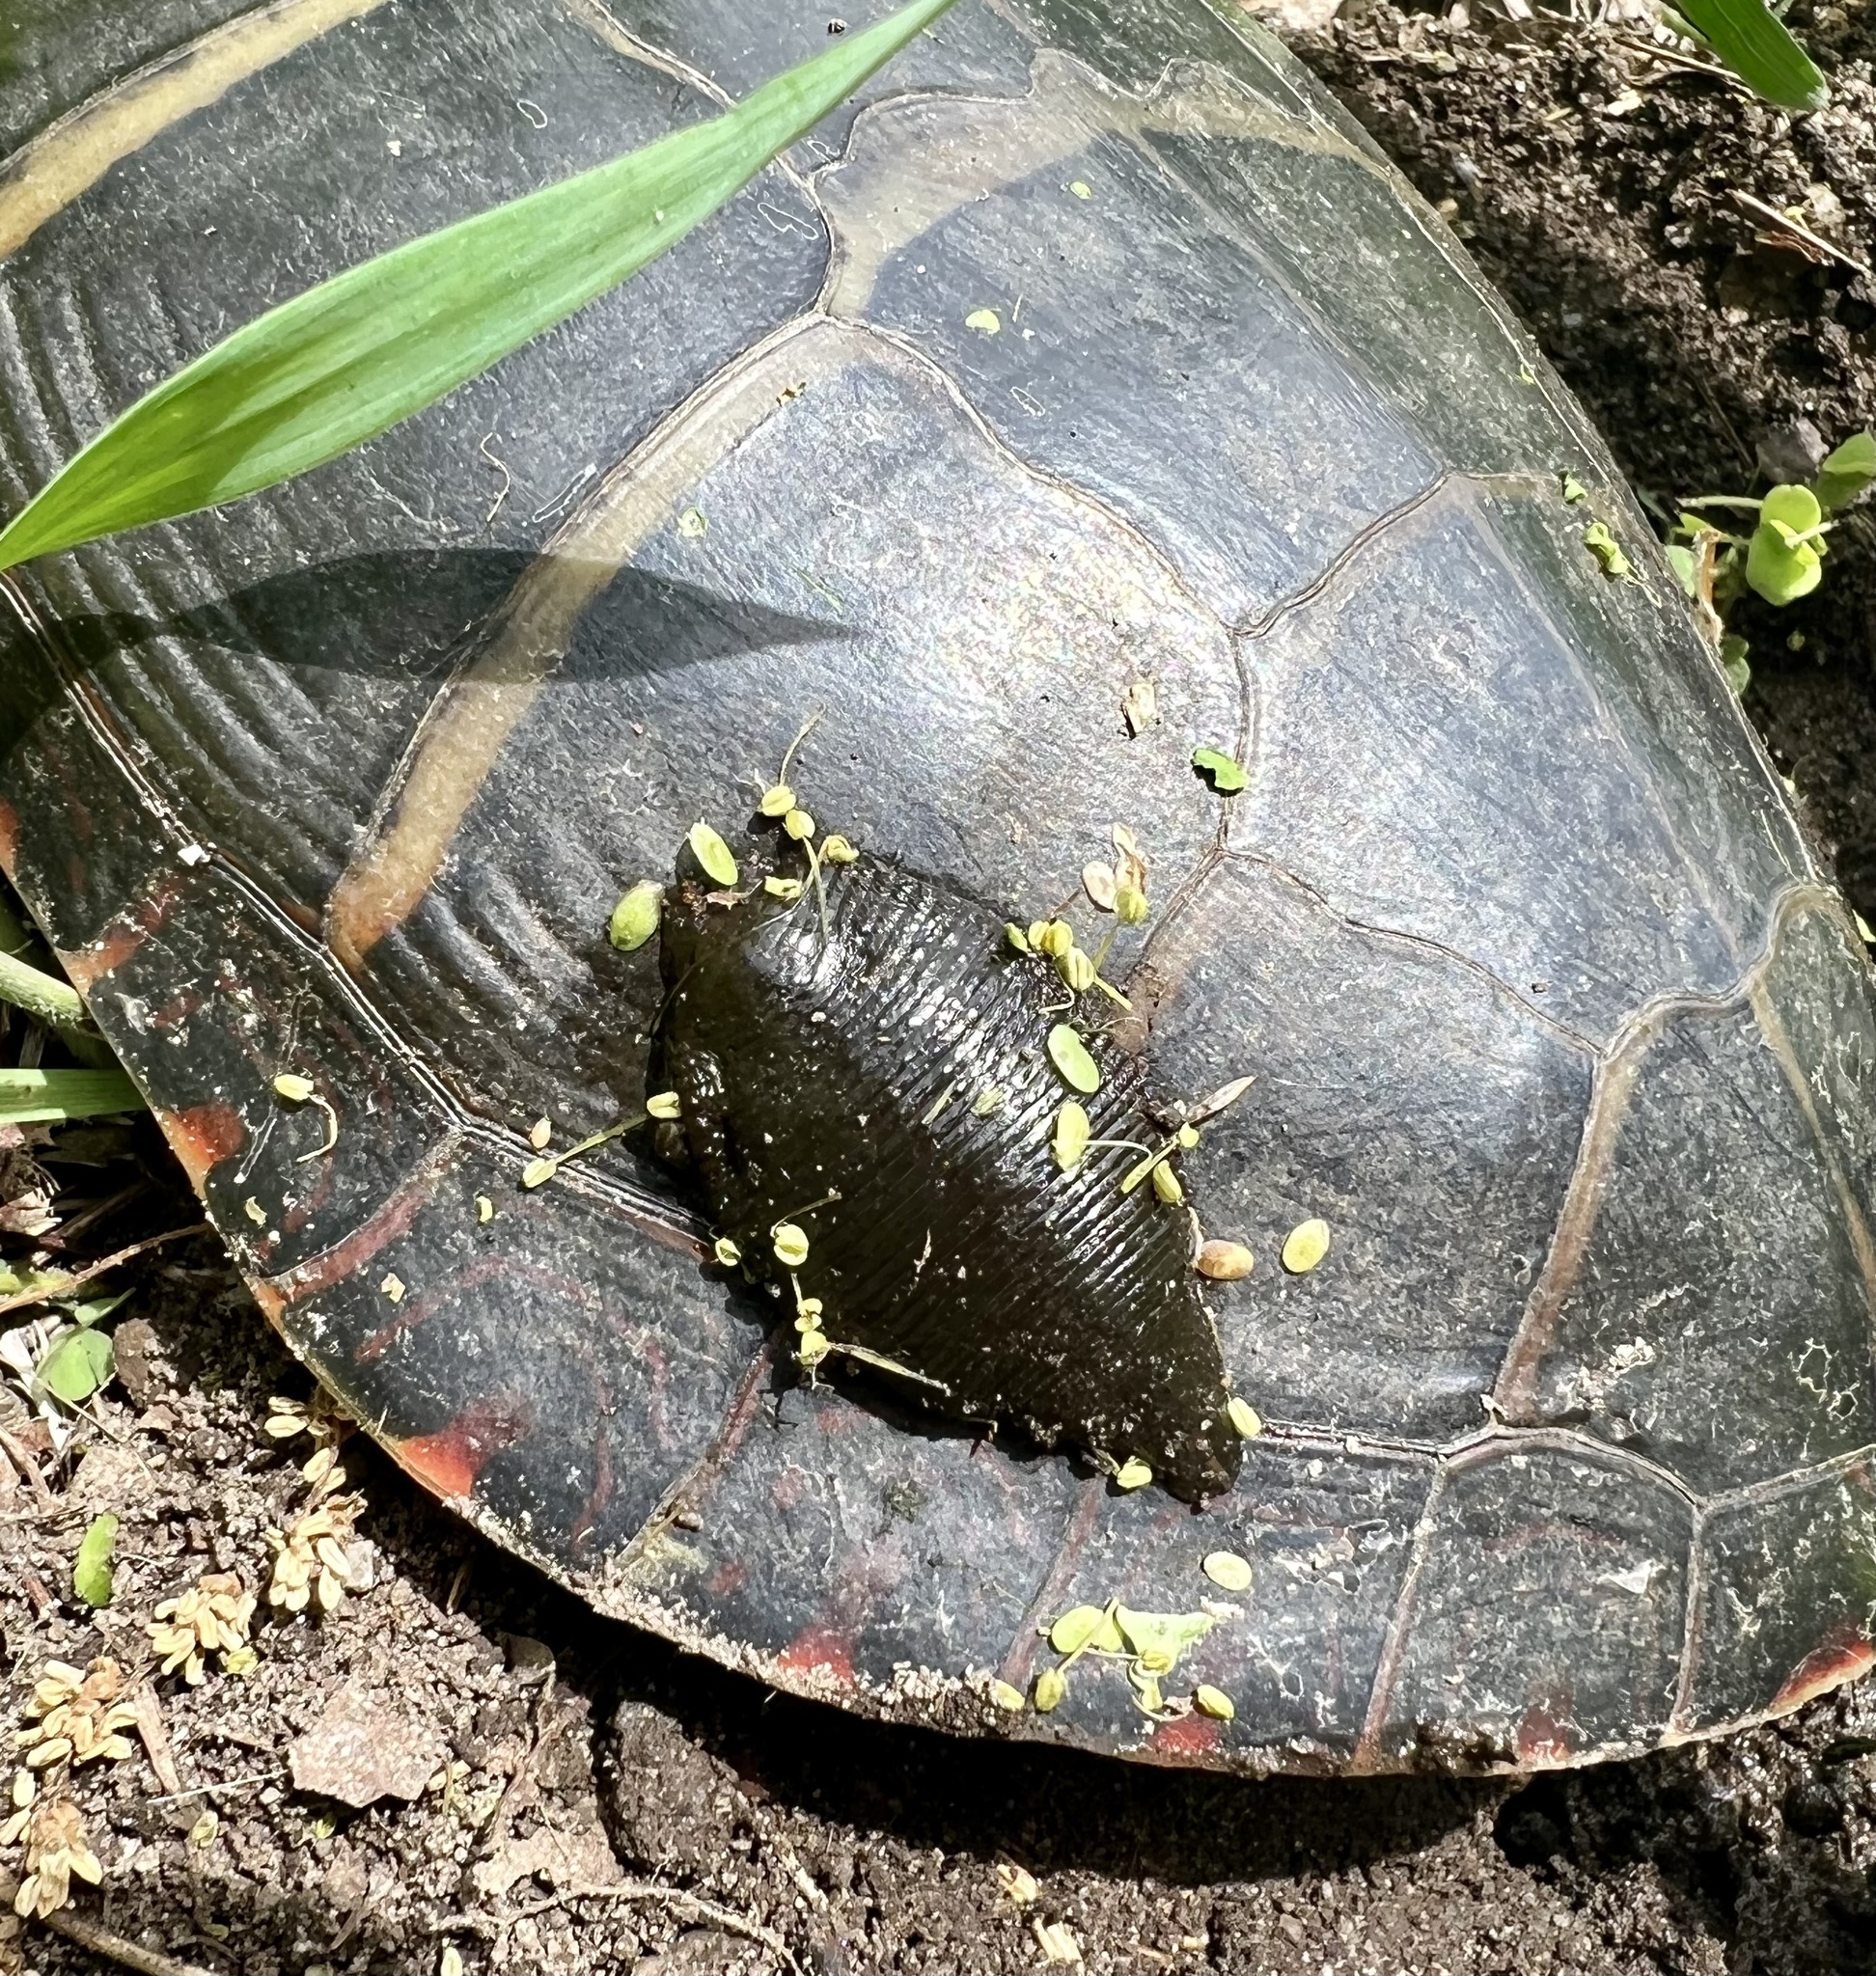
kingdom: Animalia
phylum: Annelida
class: Clitellata
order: Rhynchobdellida
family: Glossiphoniidae
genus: Placobdella
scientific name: Placobdella parasitica
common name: Smooth turtle leech
